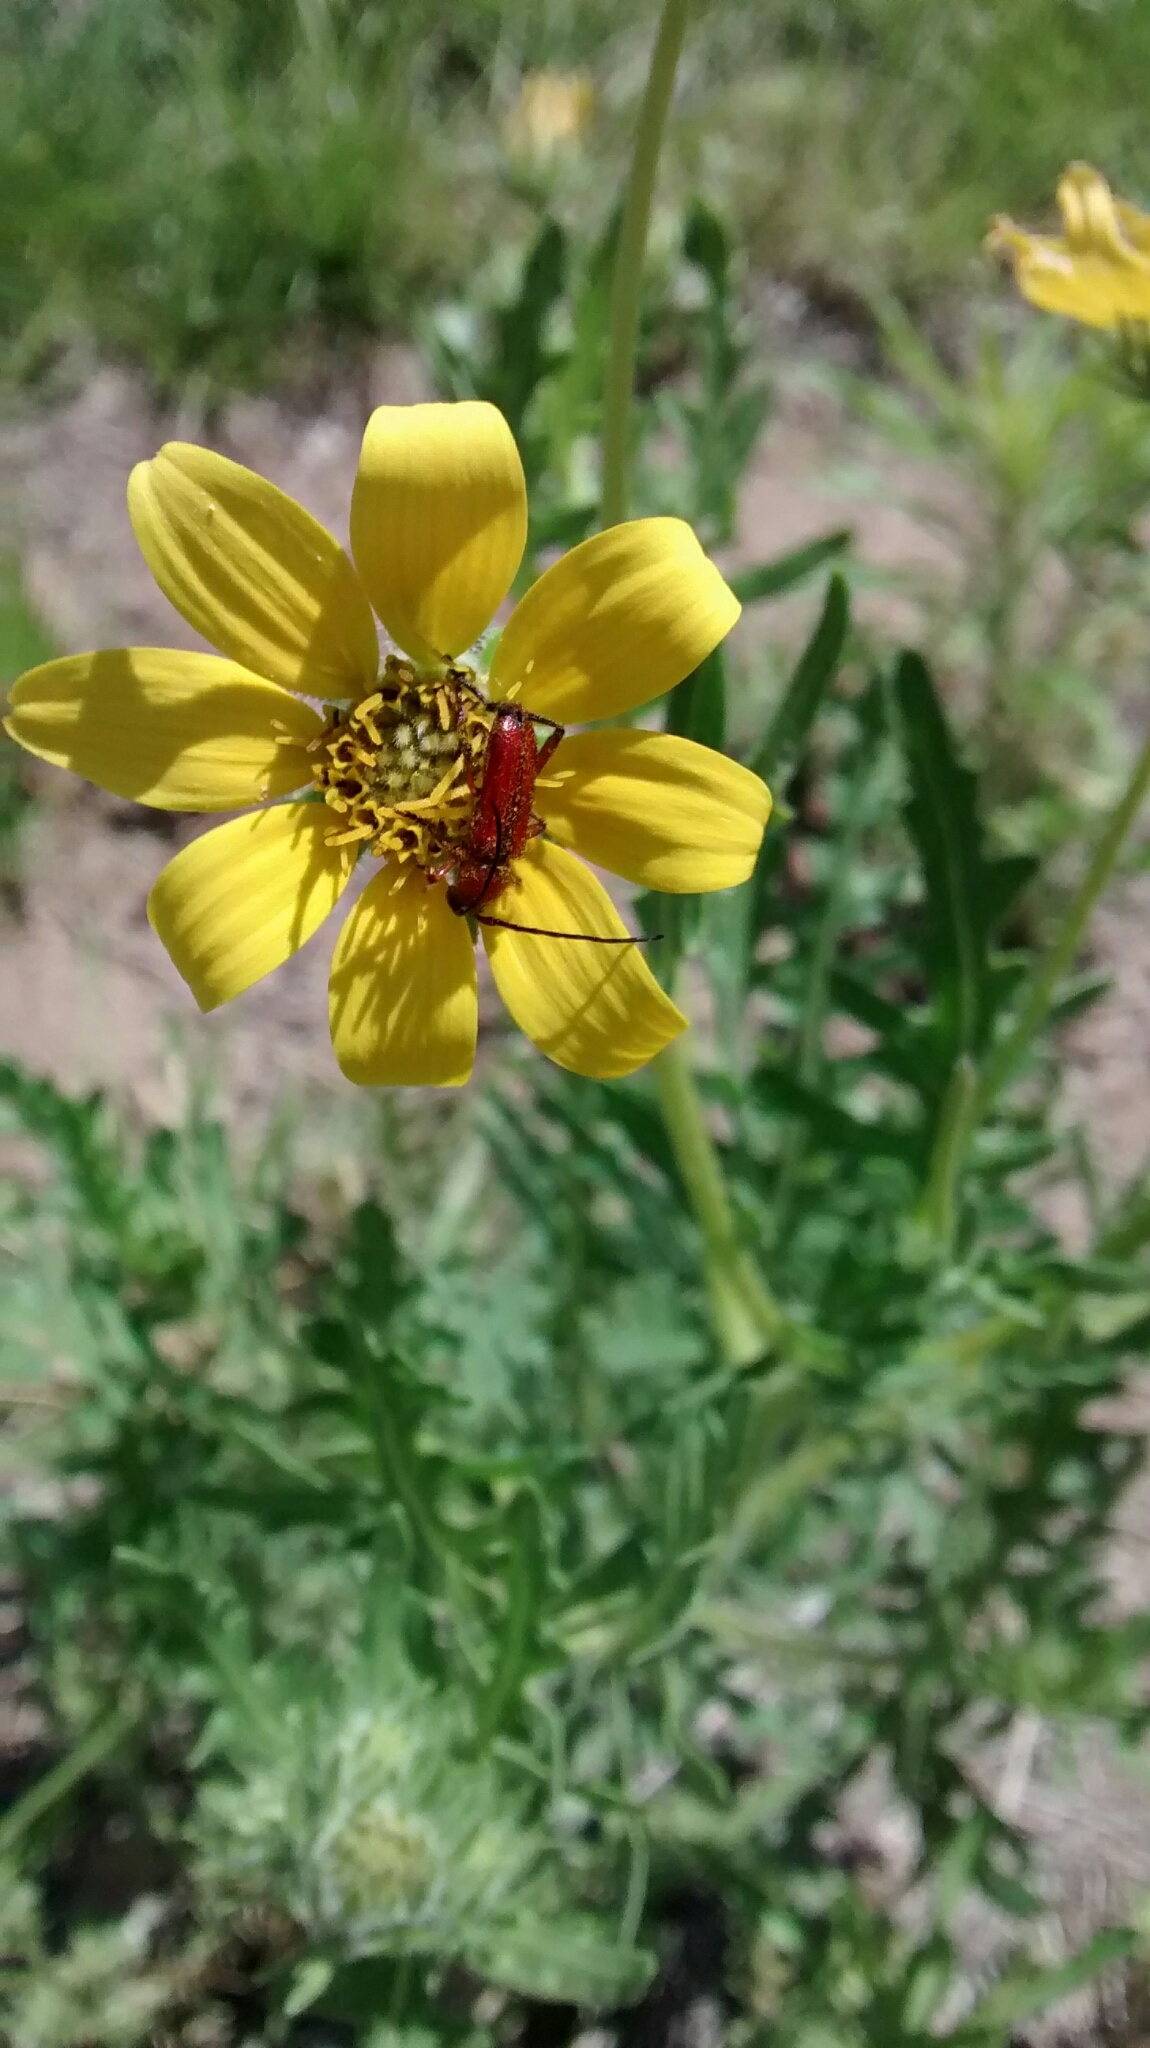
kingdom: Animalia
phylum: Arthropoda
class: Insecta
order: Coleoptera
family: Cerambycidae
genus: Batyle
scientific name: Batyle suturalis
